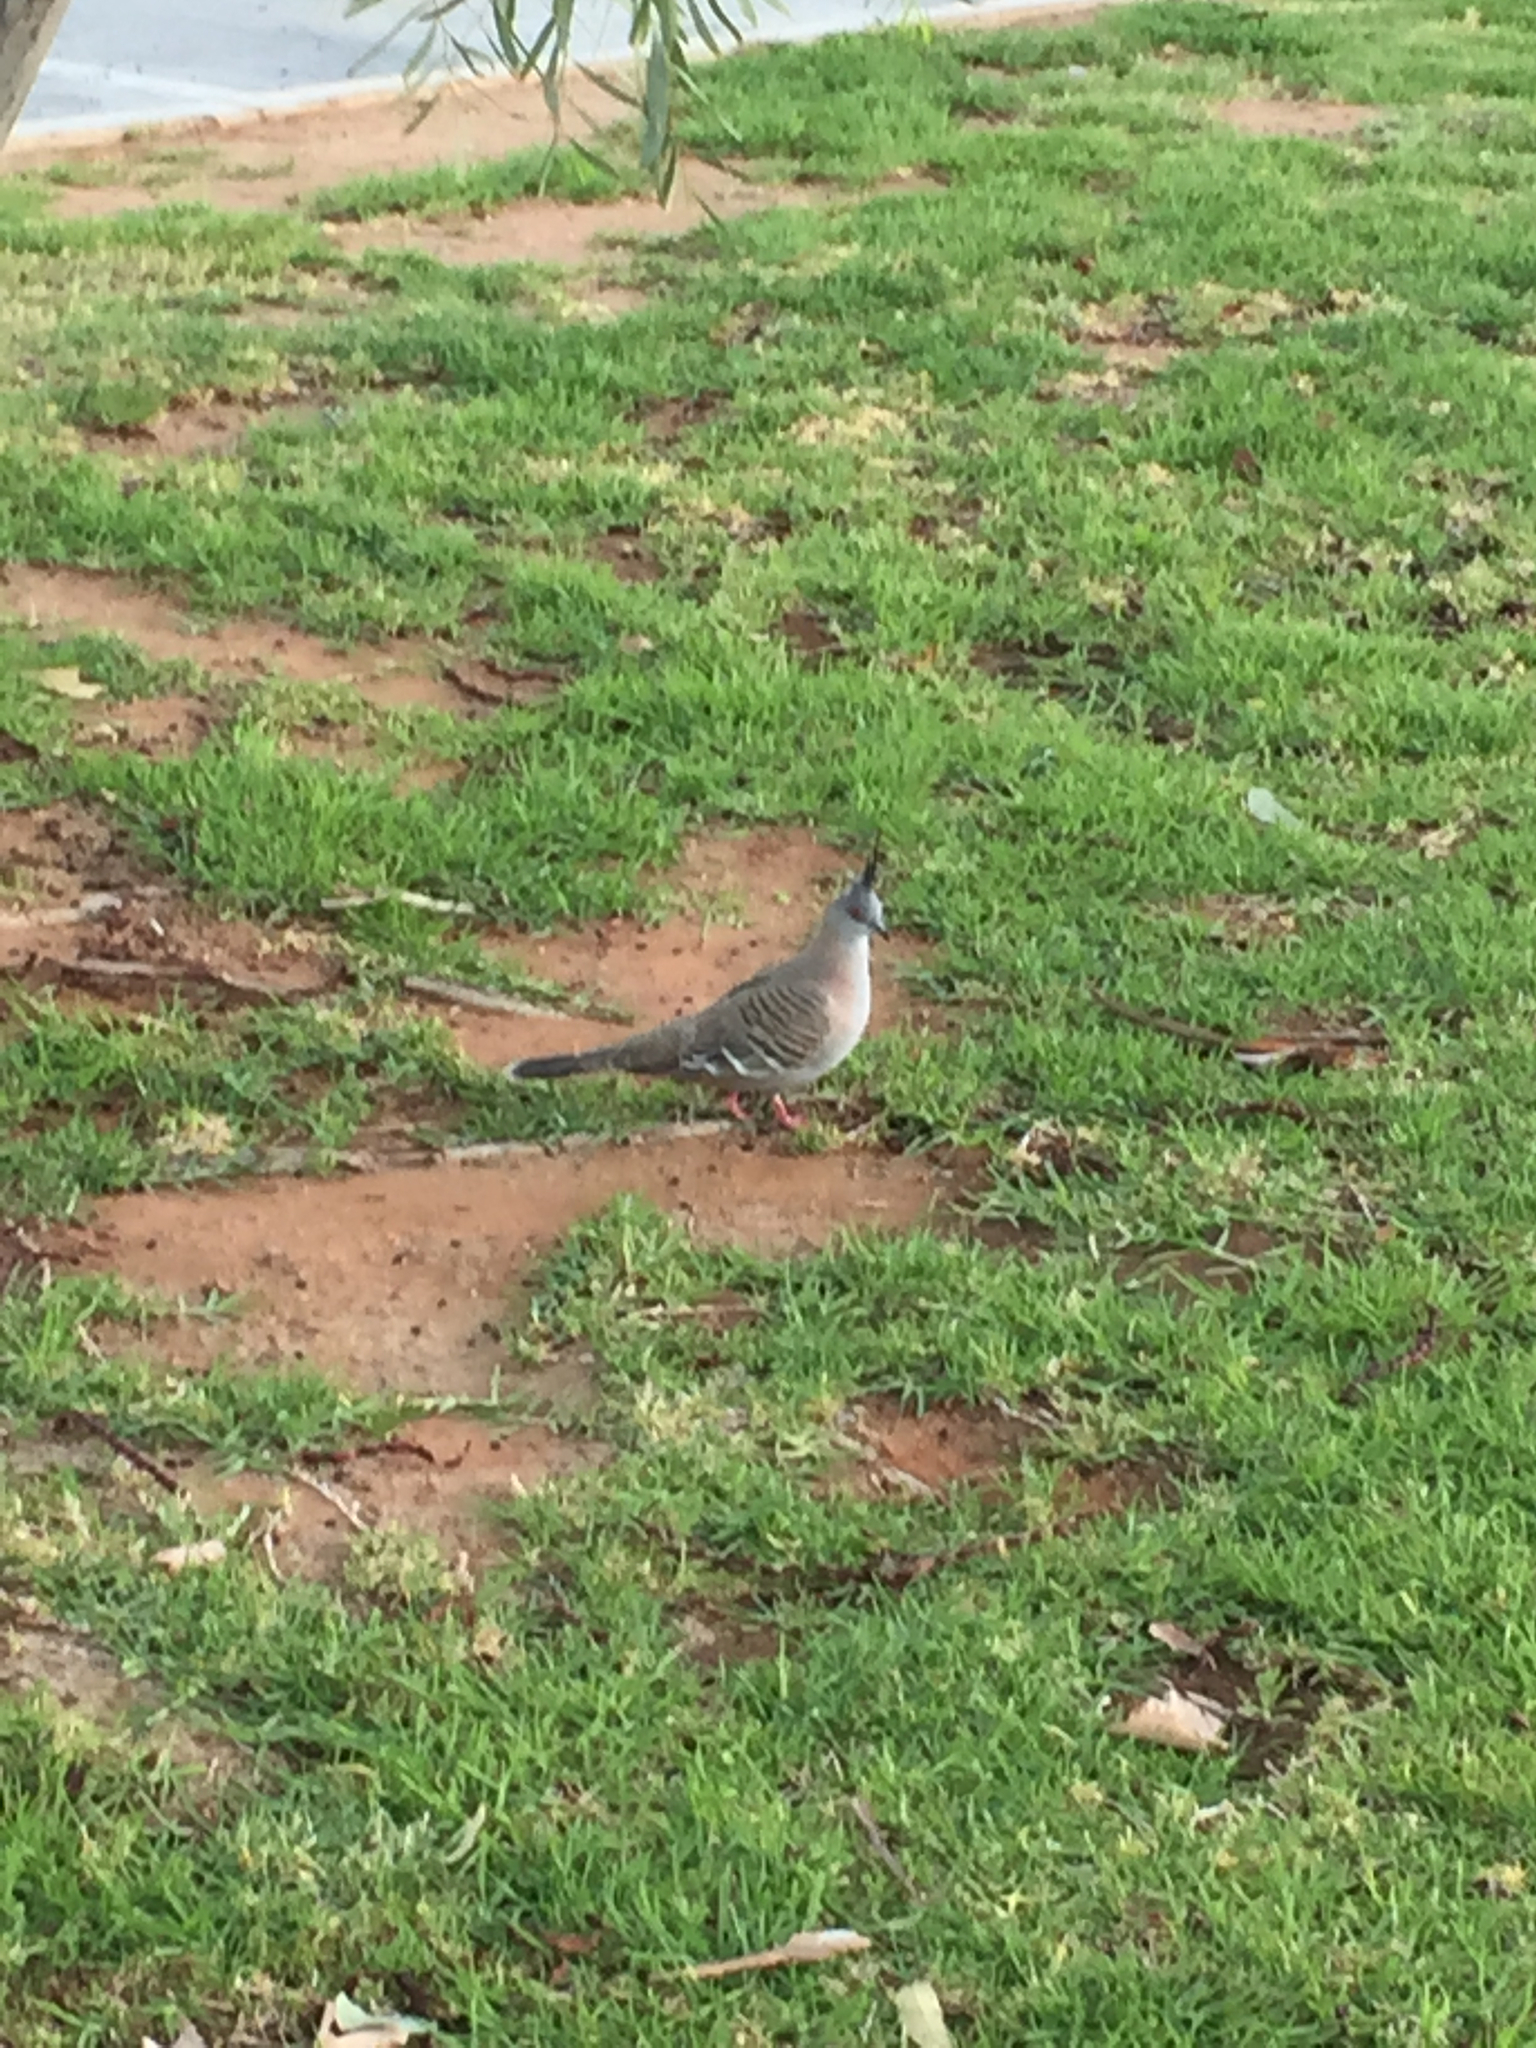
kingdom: Animalia
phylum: Chordata
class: Aves
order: Columbiformes
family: Columbidae
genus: Ocyphaps
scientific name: Ocyphaps lophotes
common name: Crested pigeon
